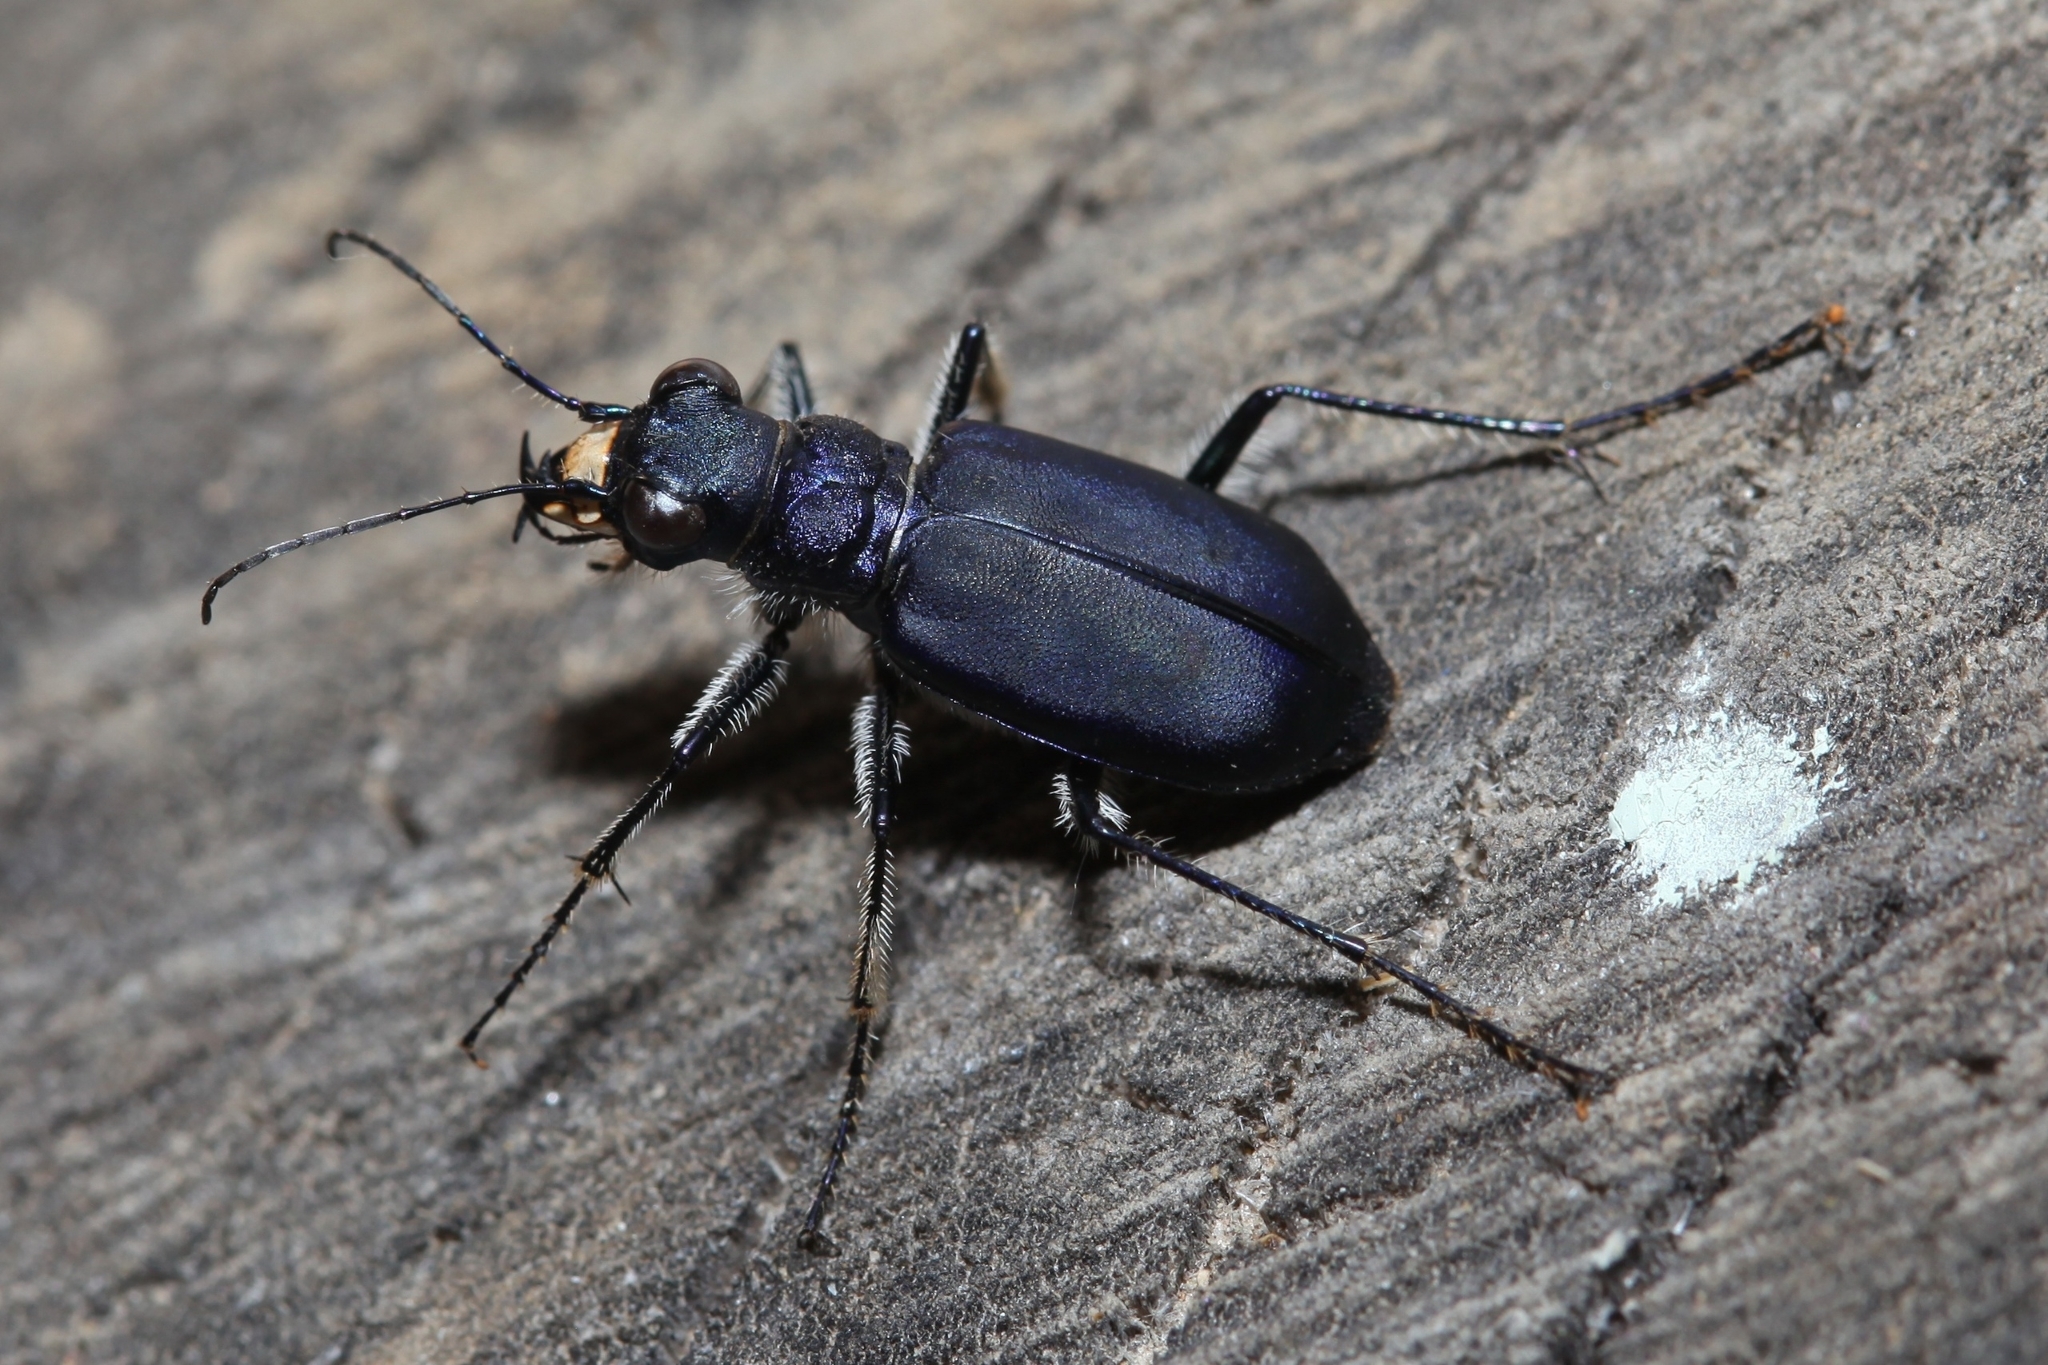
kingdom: Animalia
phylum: Arthropoda
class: Insecta
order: Coleoptera
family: Carabidae
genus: Cicindela
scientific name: Cicindela coerulea
